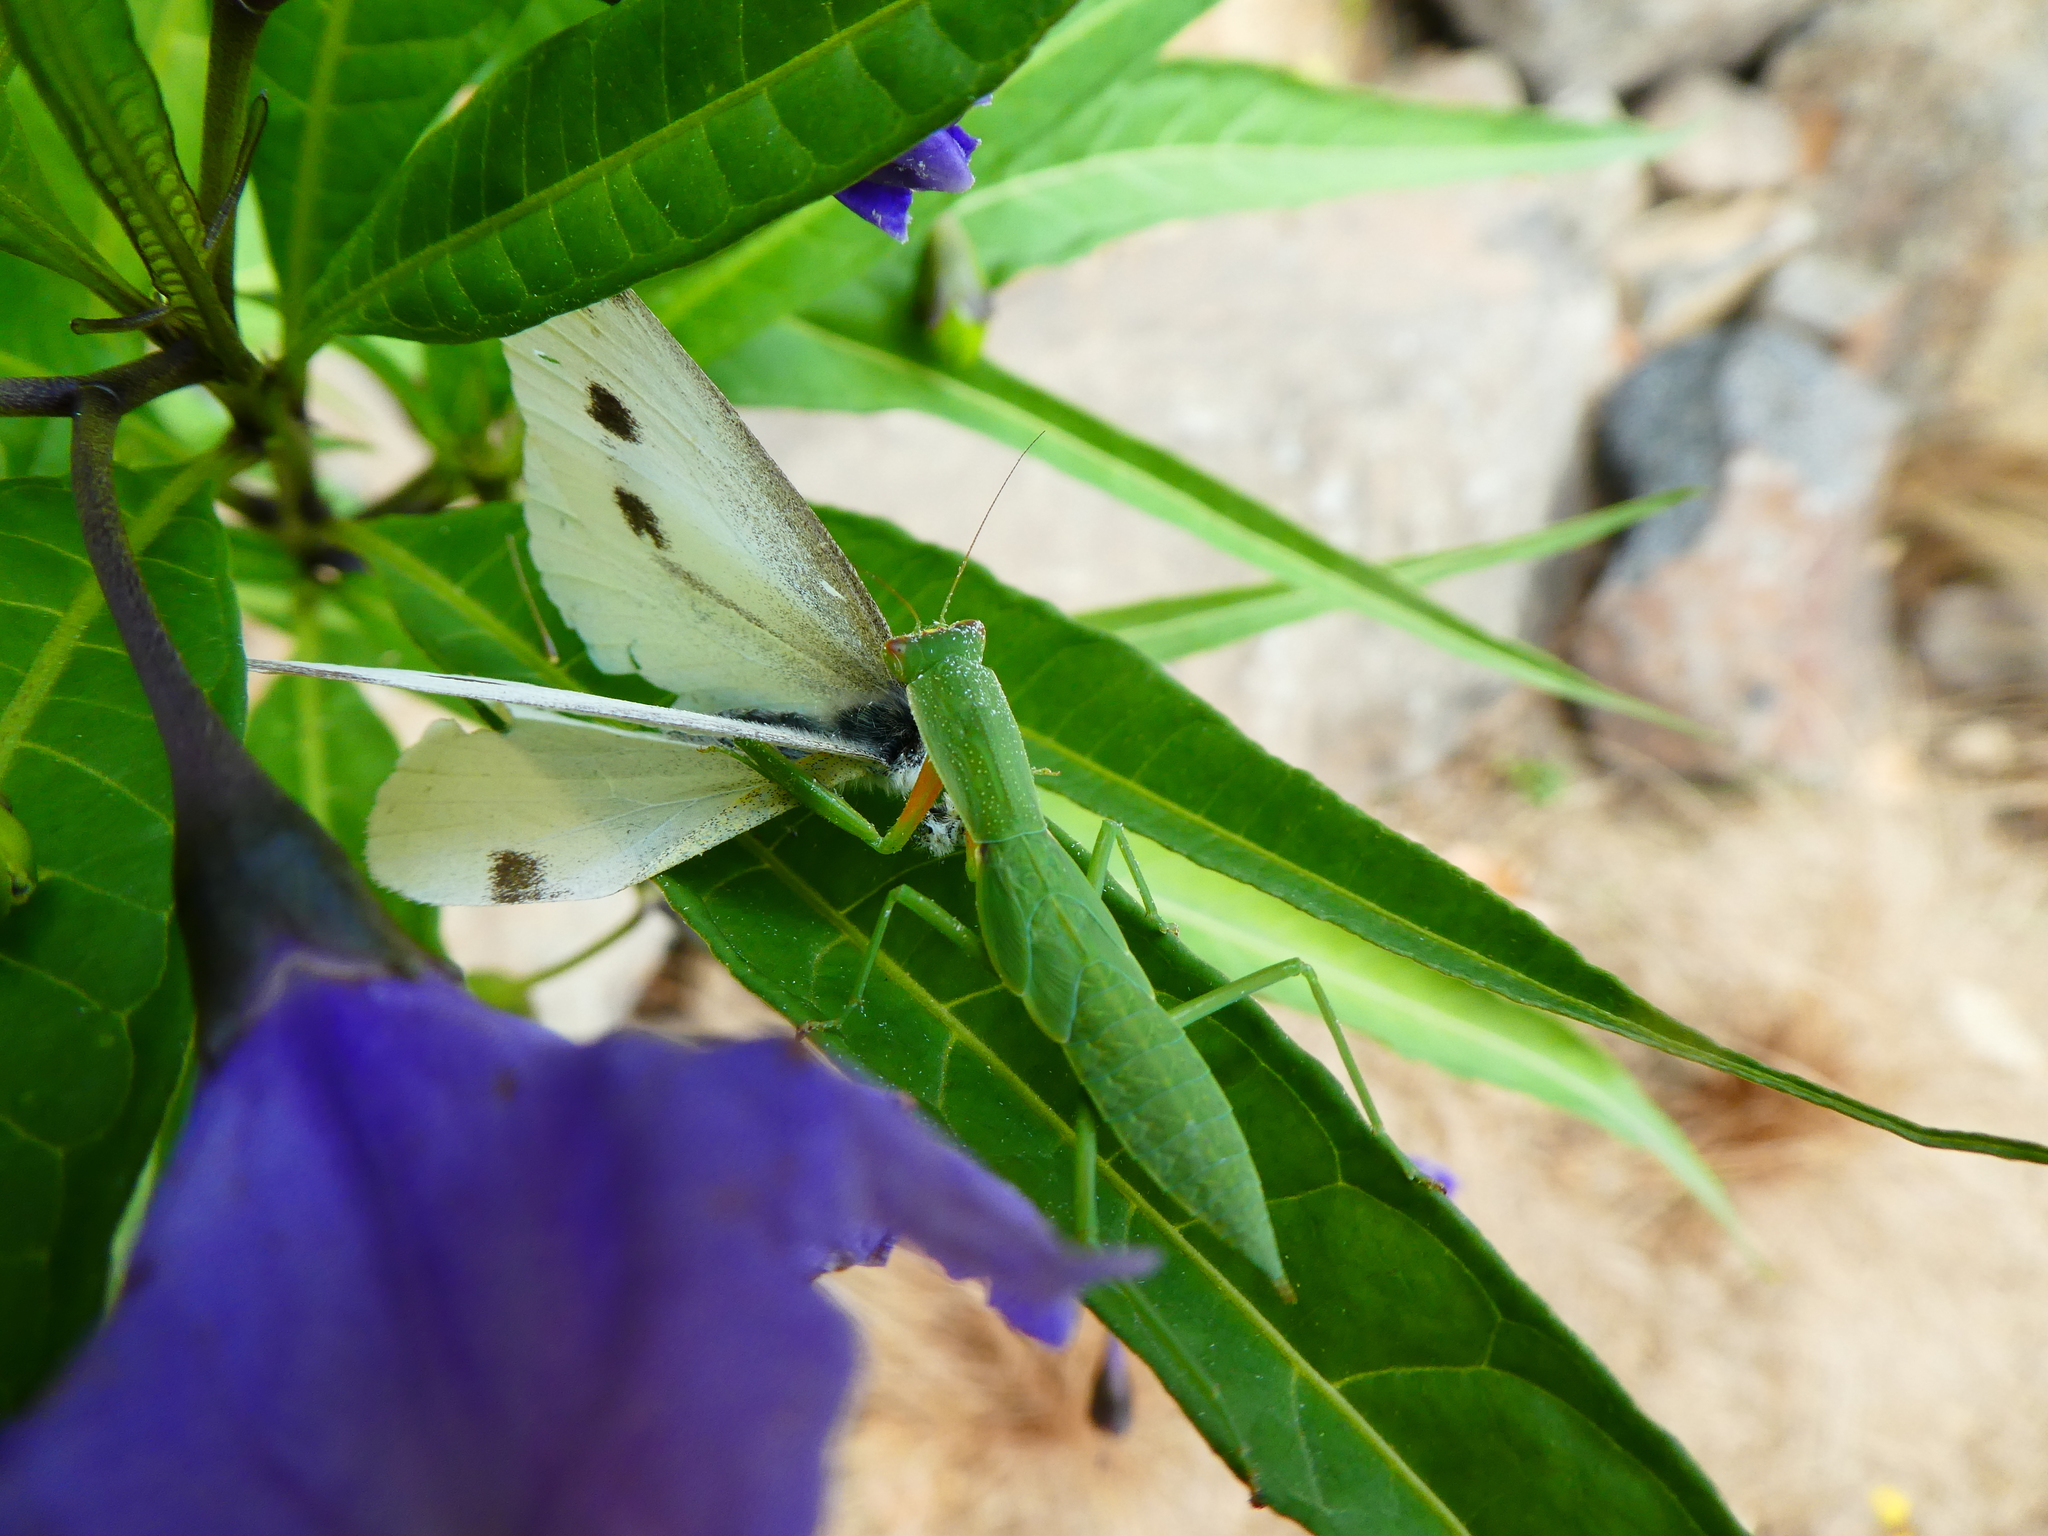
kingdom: Animalia
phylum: Arthropoda
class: Insecta
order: Lepidoptera
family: Pieridae
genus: Pieris
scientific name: Pieris rapae
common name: Small white
